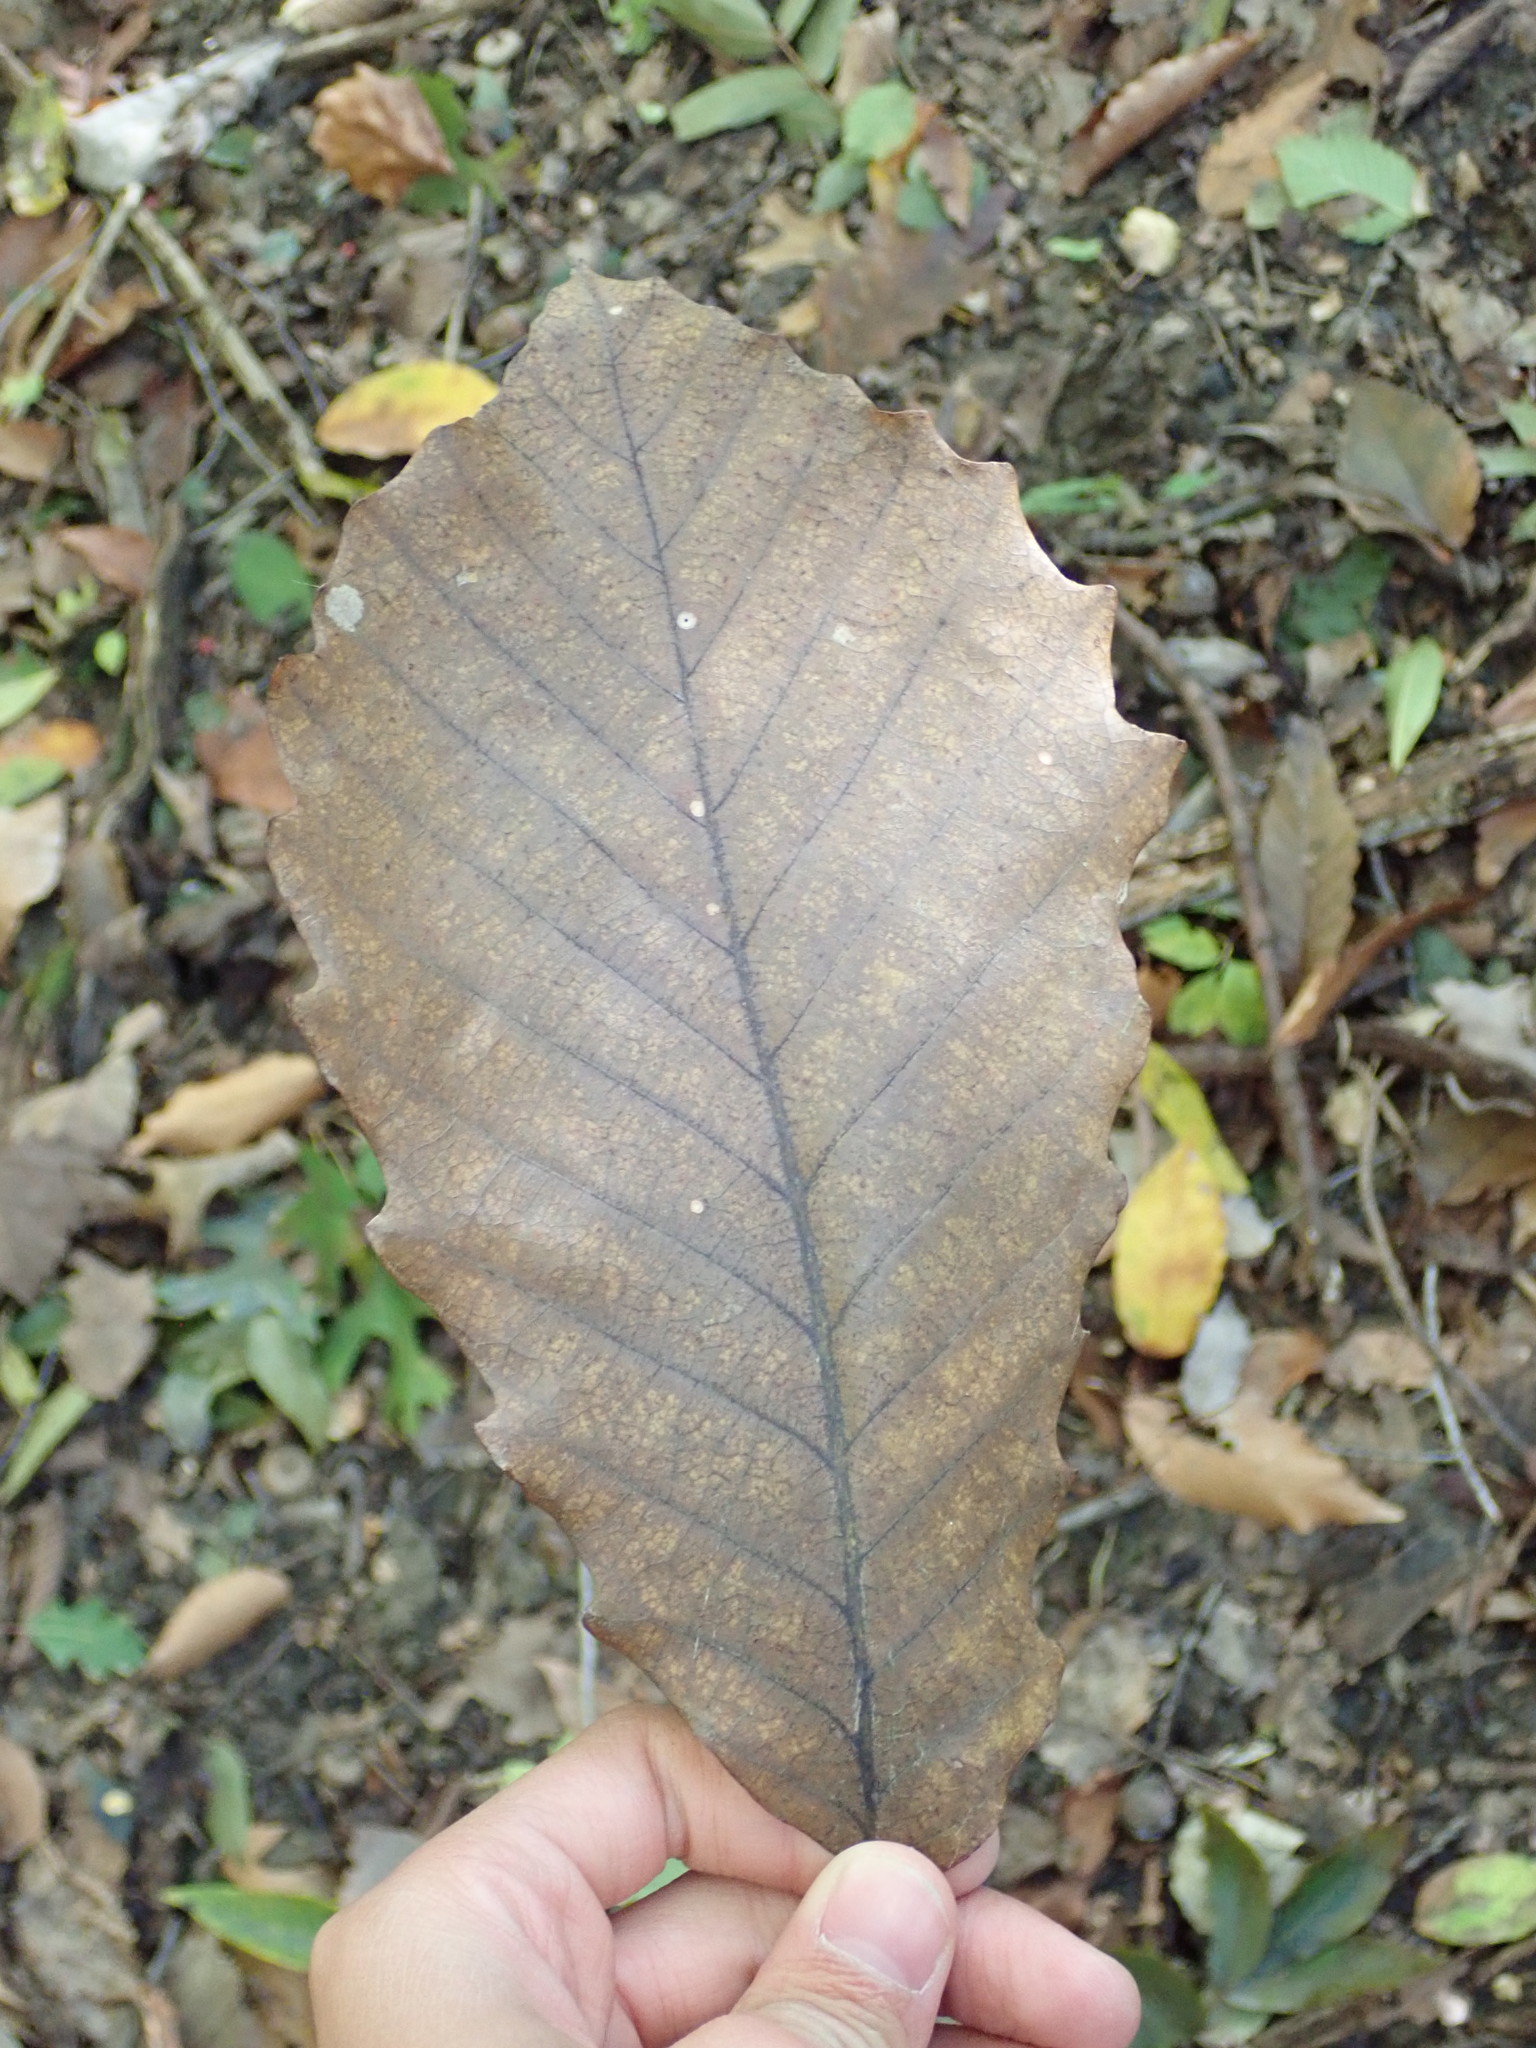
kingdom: Plantae
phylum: Tracheophyta
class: Magnoliopsida
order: Fagales
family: Fagaceae
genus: Quercus
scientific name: Quercus muehlenbergii
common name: Chinkapin oak
